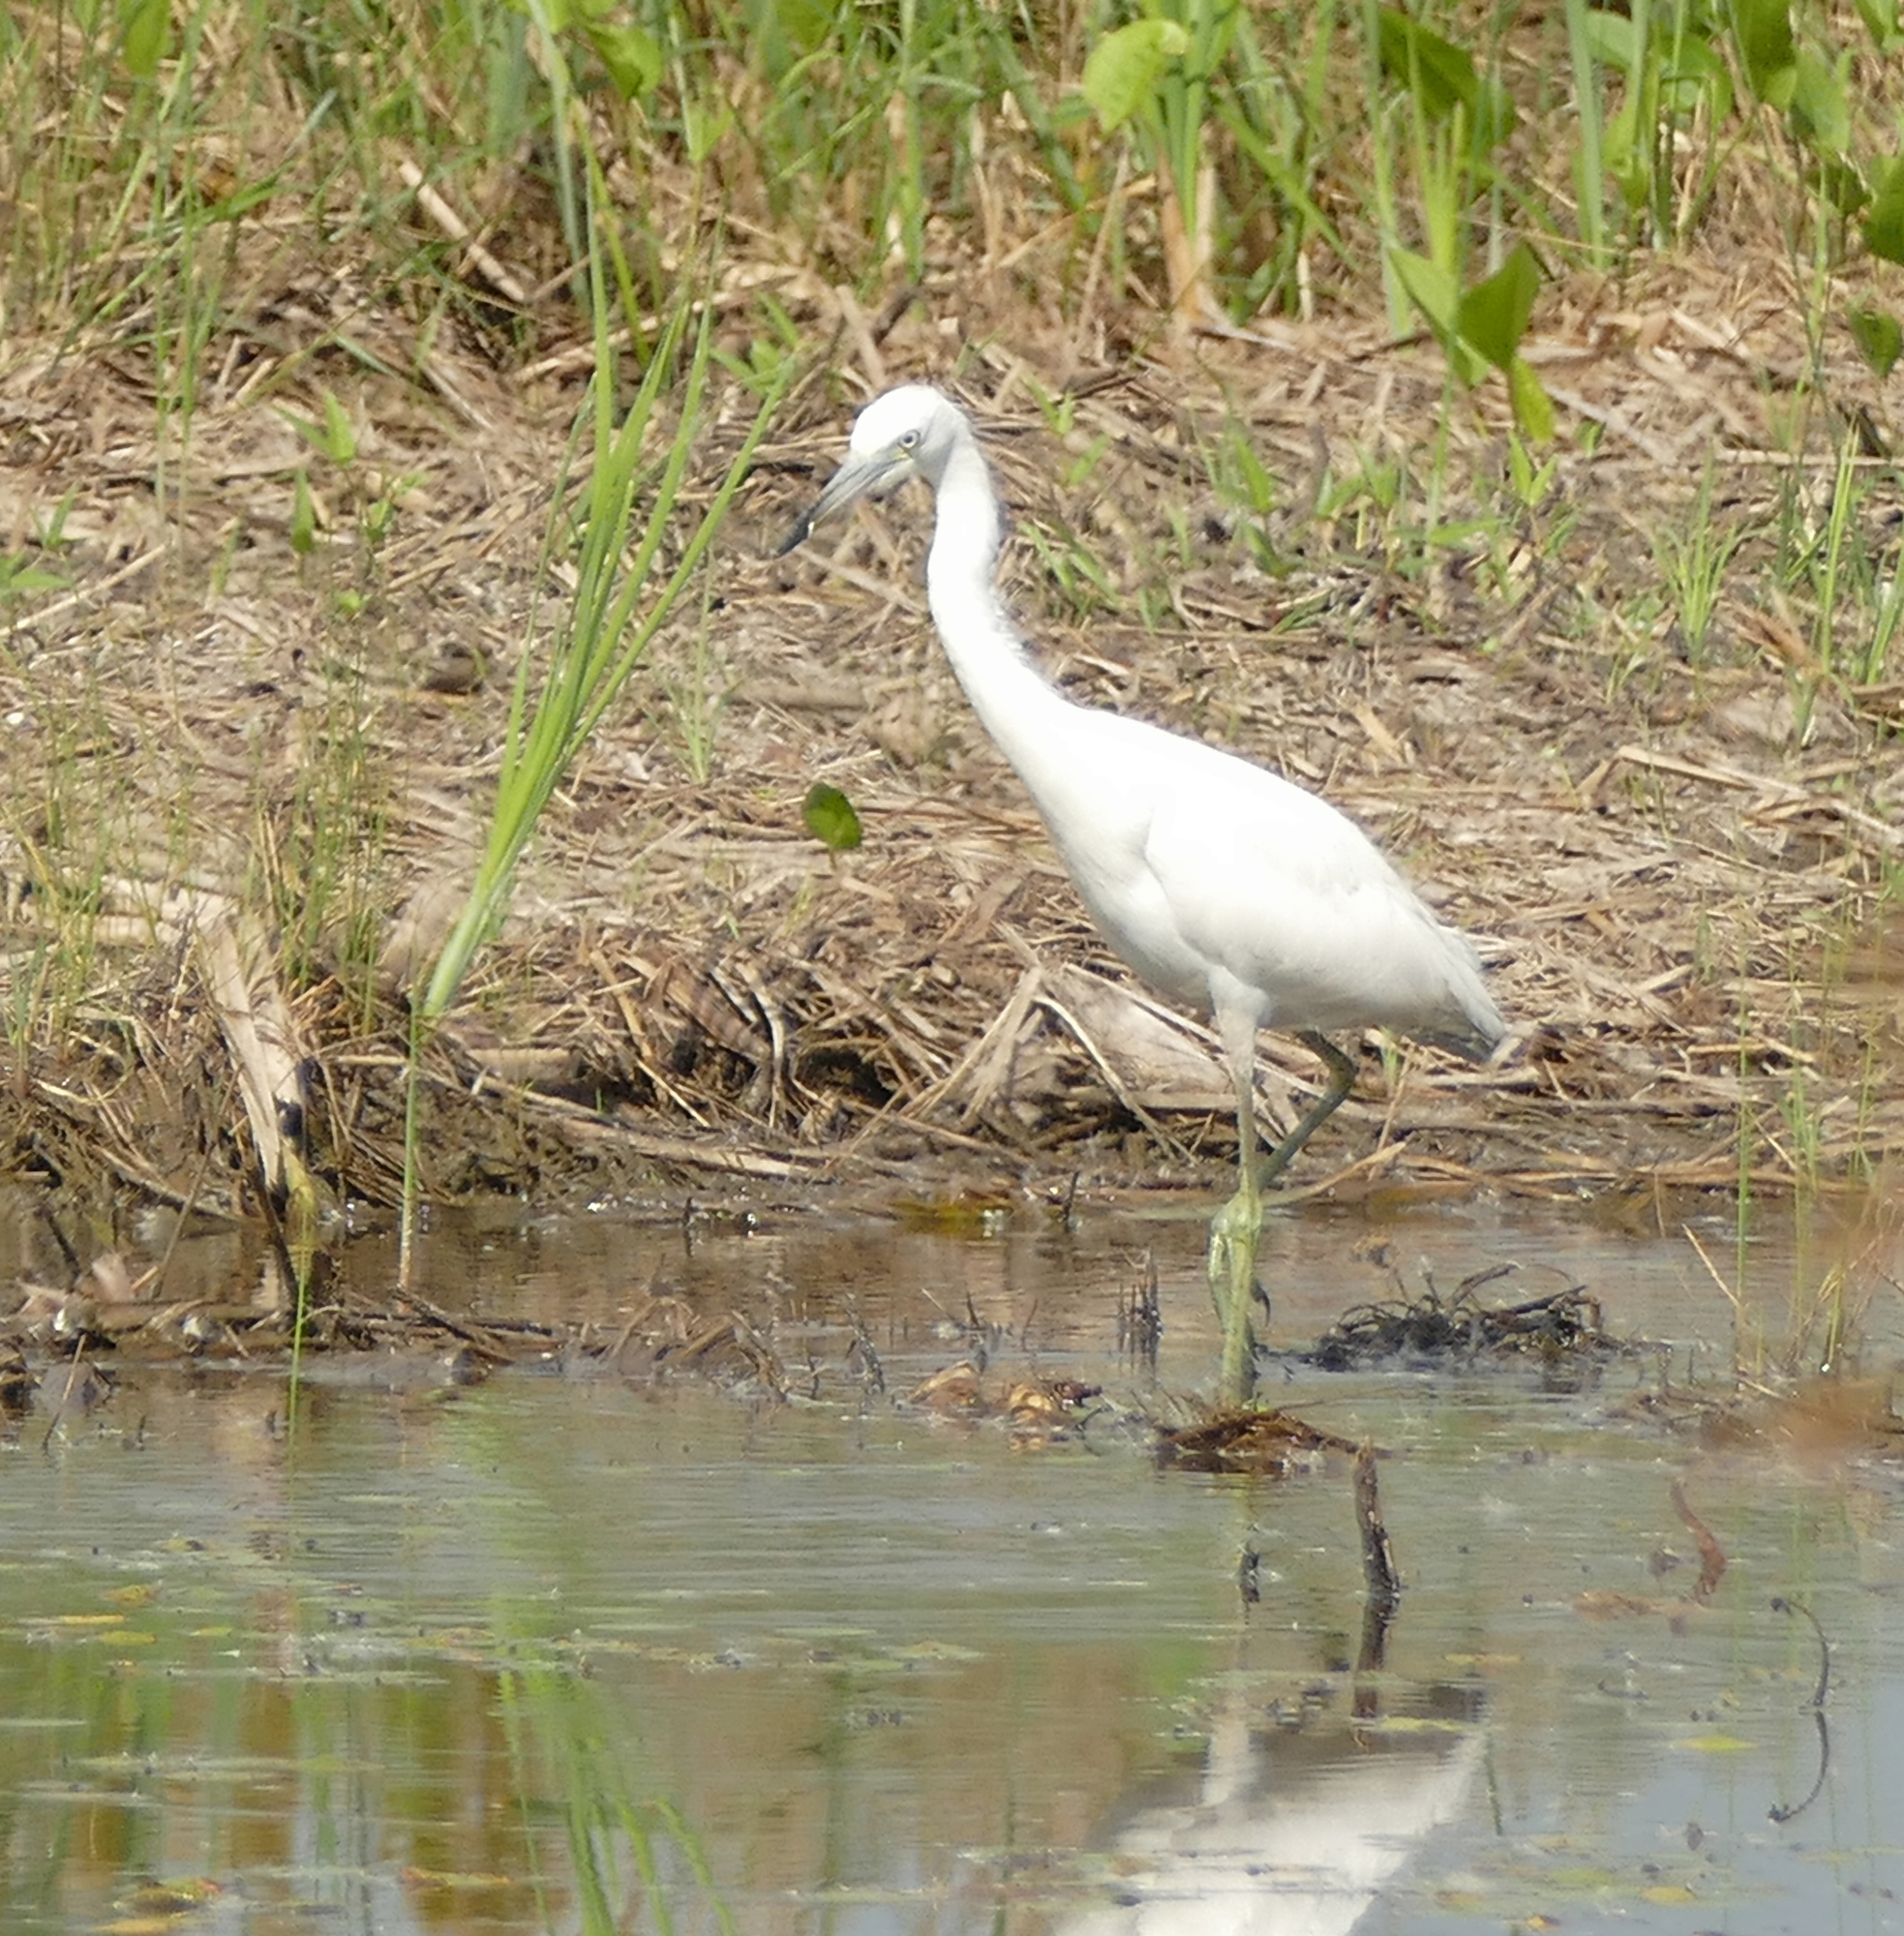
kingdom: Animalia
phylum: Chordata
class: Aves
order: Pelecaniformes
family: Ardeidae
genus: Egretta
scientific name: Egretta caerulea
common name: Little blue heron
